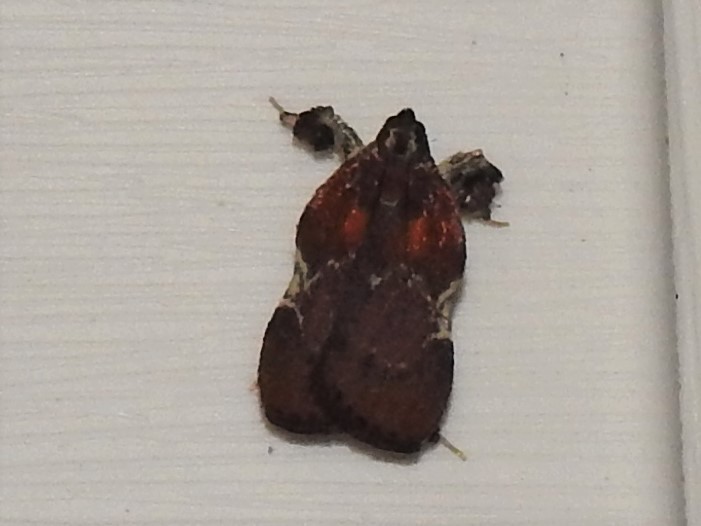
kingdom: Animalia
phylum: Arthropoda
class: Insecta
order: Lepidoptera
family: Pyralidae
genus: Galasa
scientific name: Galasa nigrinodis
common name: Boxwood leaftier moth
